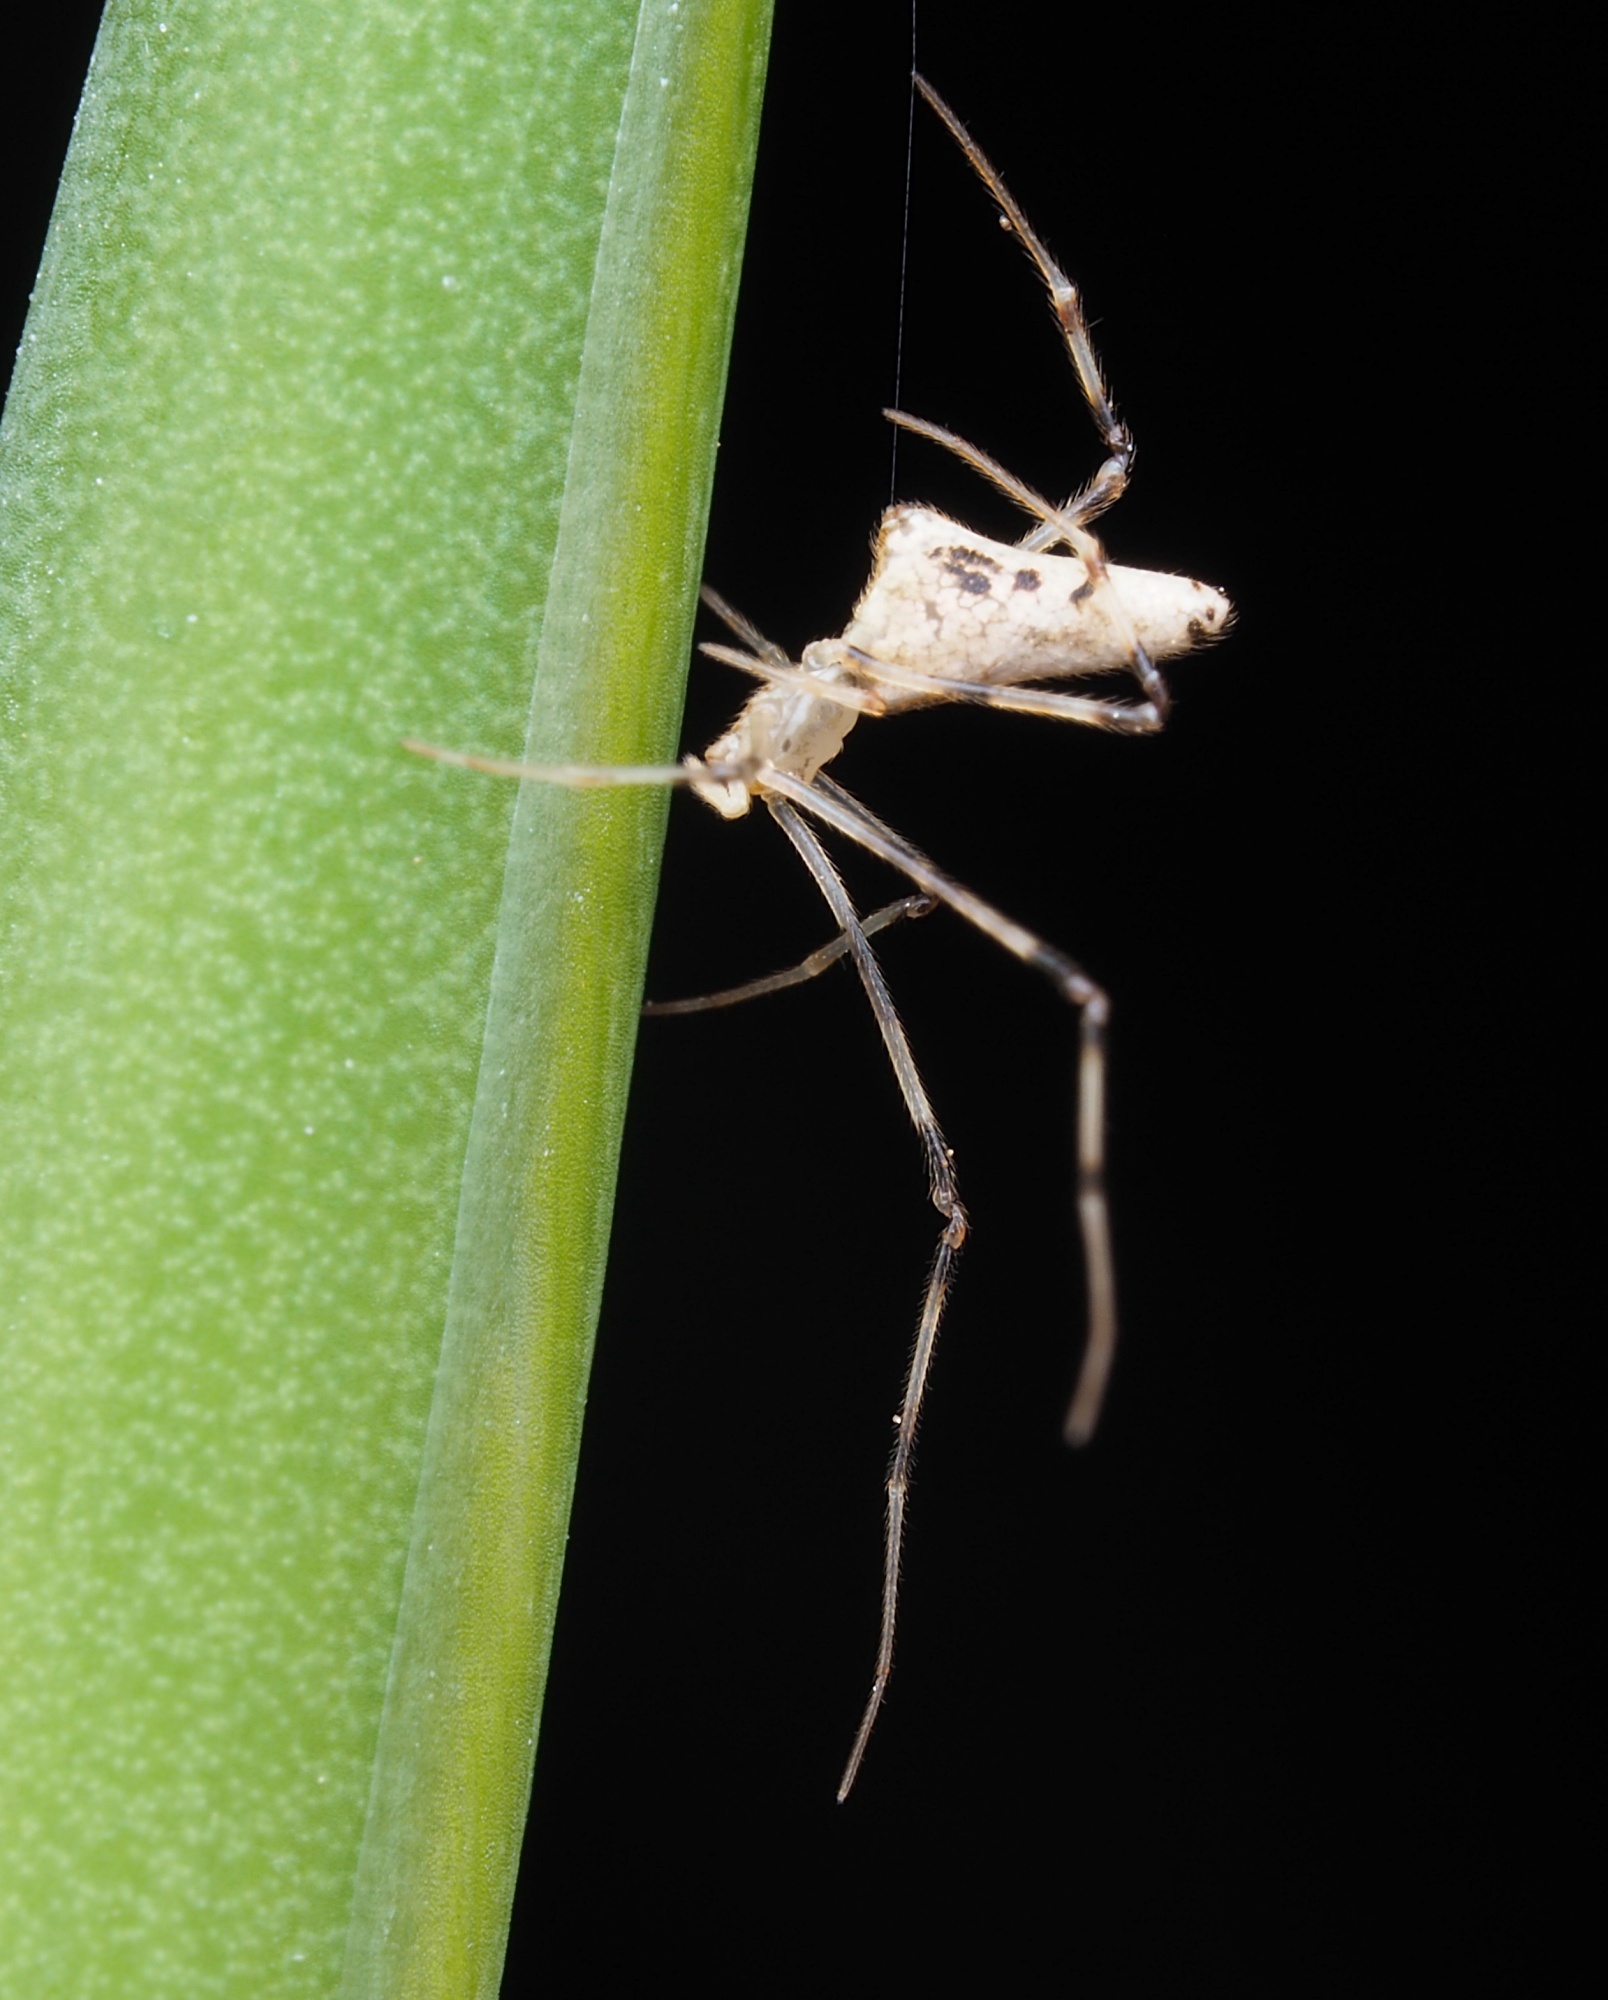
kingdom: Animalia
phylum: Arthropoda
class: Arachnida
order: Araneae
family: Theridiidae
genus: Rhomphaea
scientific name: Rhomphaea urquharti
